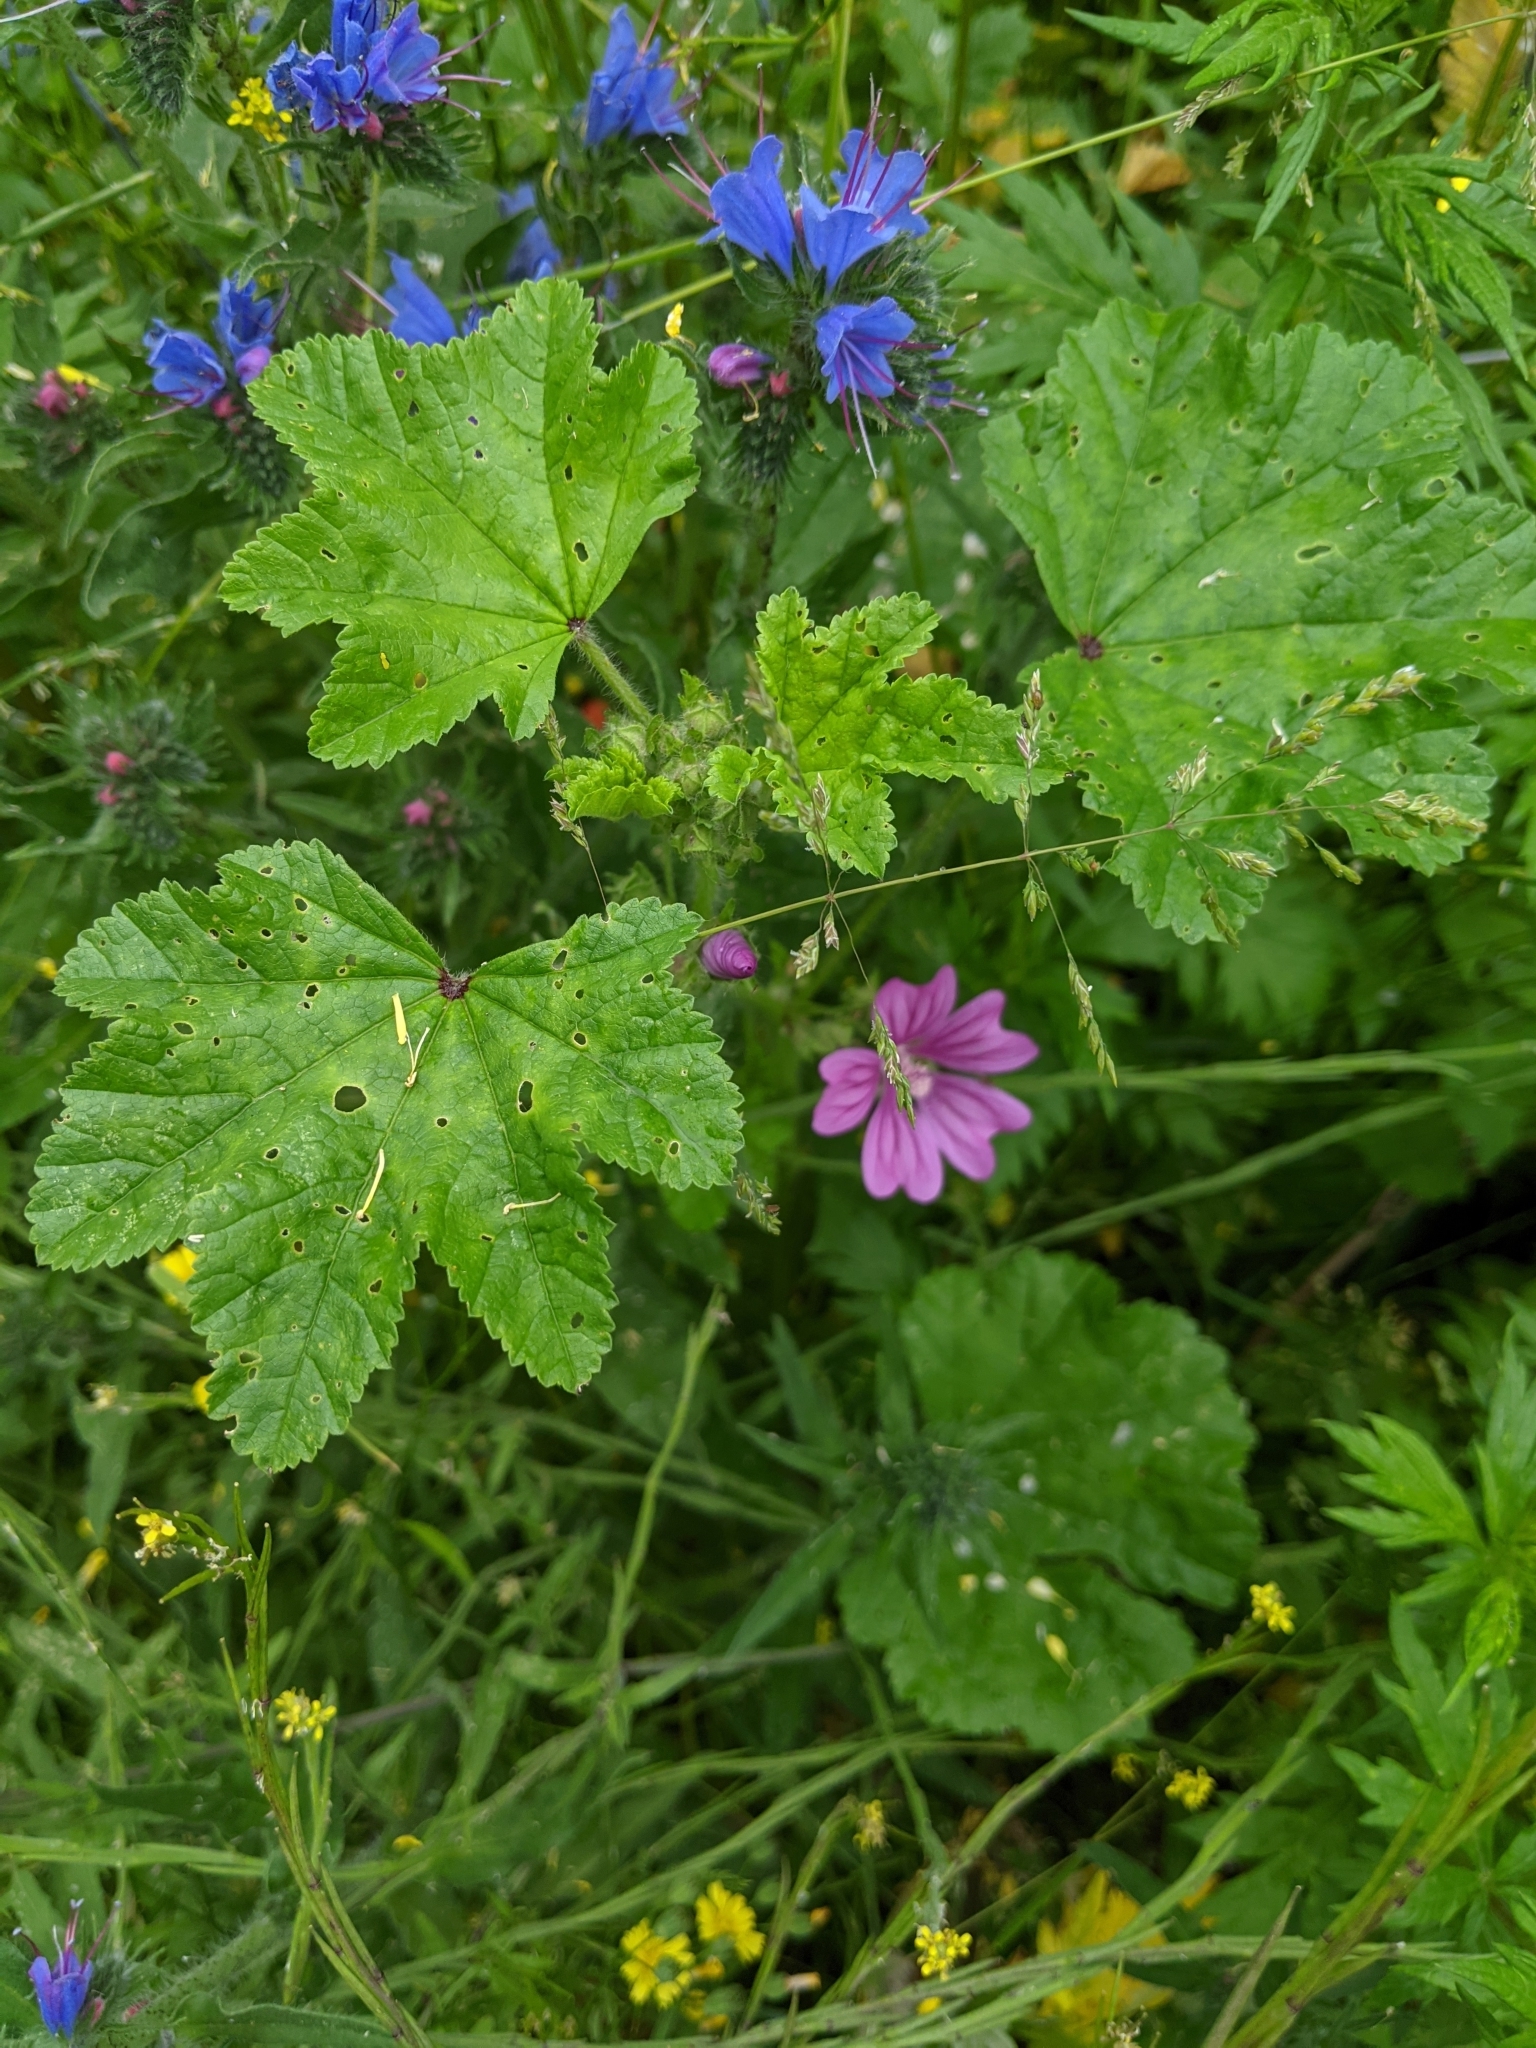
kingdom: Plantae
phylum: Tracheophyta
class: Magnoliopsida
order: Malvales
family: Malvaceae
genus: Malva
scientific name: Malva sylvestris
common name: Common mallow
